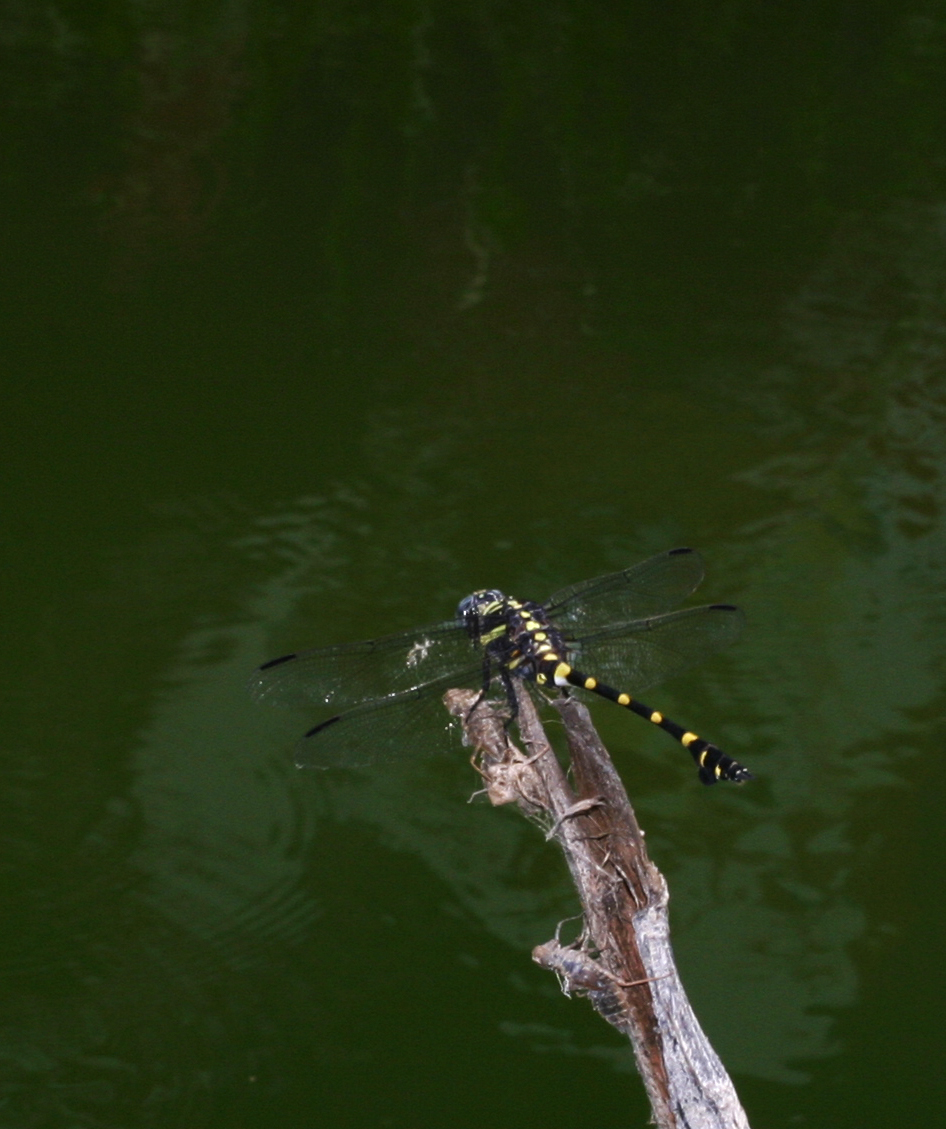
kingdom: Animalia
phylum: Arthropoda
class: Insecta
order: Odonata
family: Gomphidae
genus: Ictinogomphus
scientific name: Ictinogomphus decoratus
